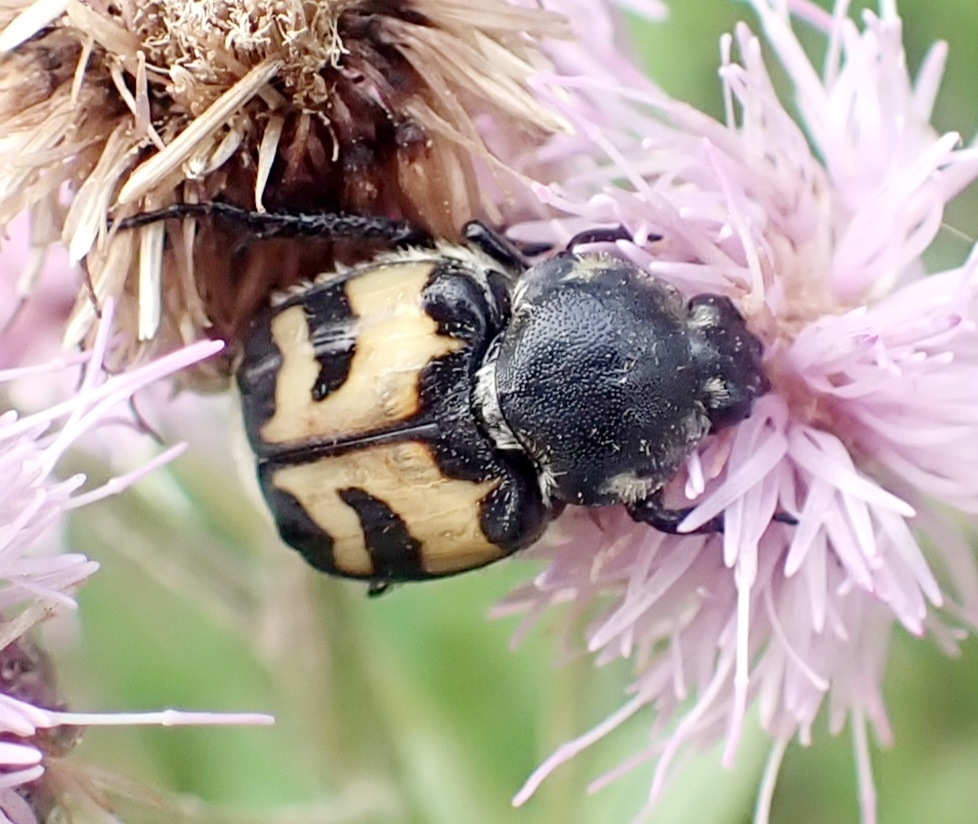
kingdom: Animalia
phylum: Arthropoda
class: Insecta
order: Coleoptera
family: Scarabaeidae
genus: Trichius
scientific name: Trichius fasciatus
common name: Bee beetle
